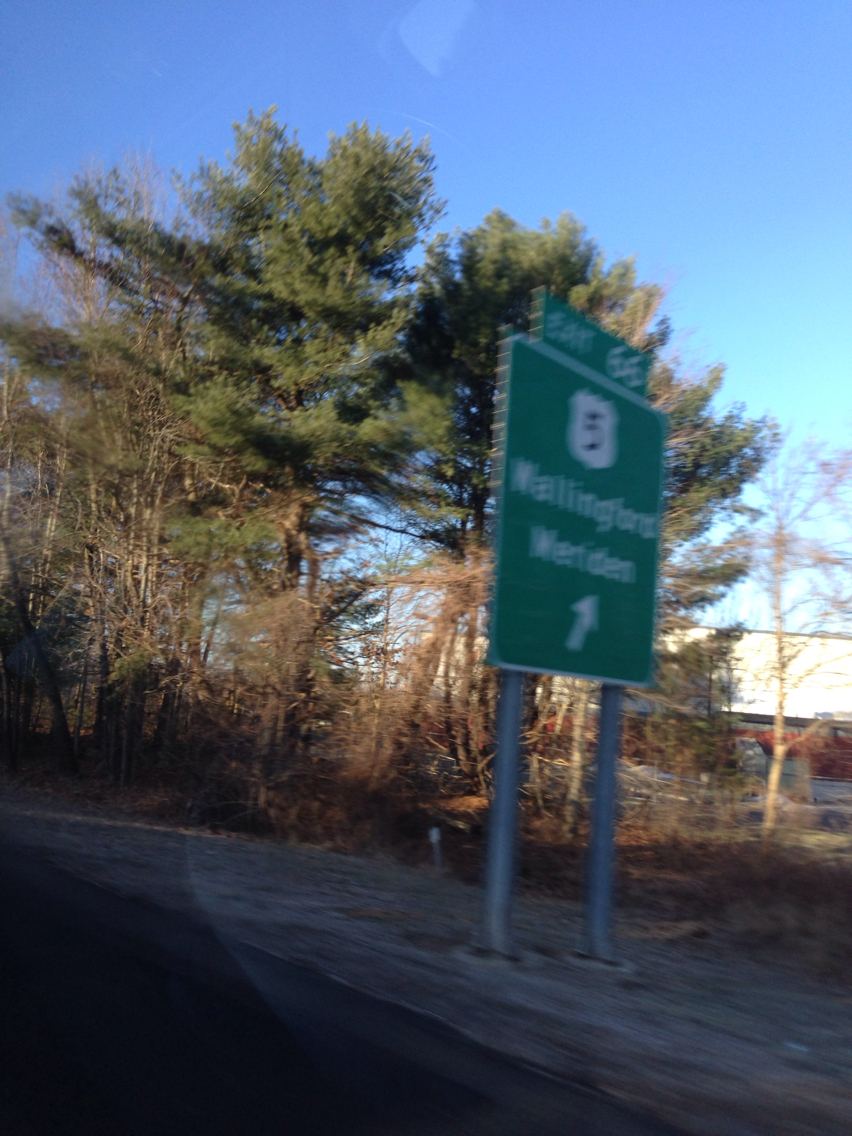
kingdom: Plantae
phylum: Tracheophyta
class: Pinopsida
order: Pinales
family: Pinaceae
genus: Pinus
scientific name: Pinus strobus
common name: Weymouth pine
